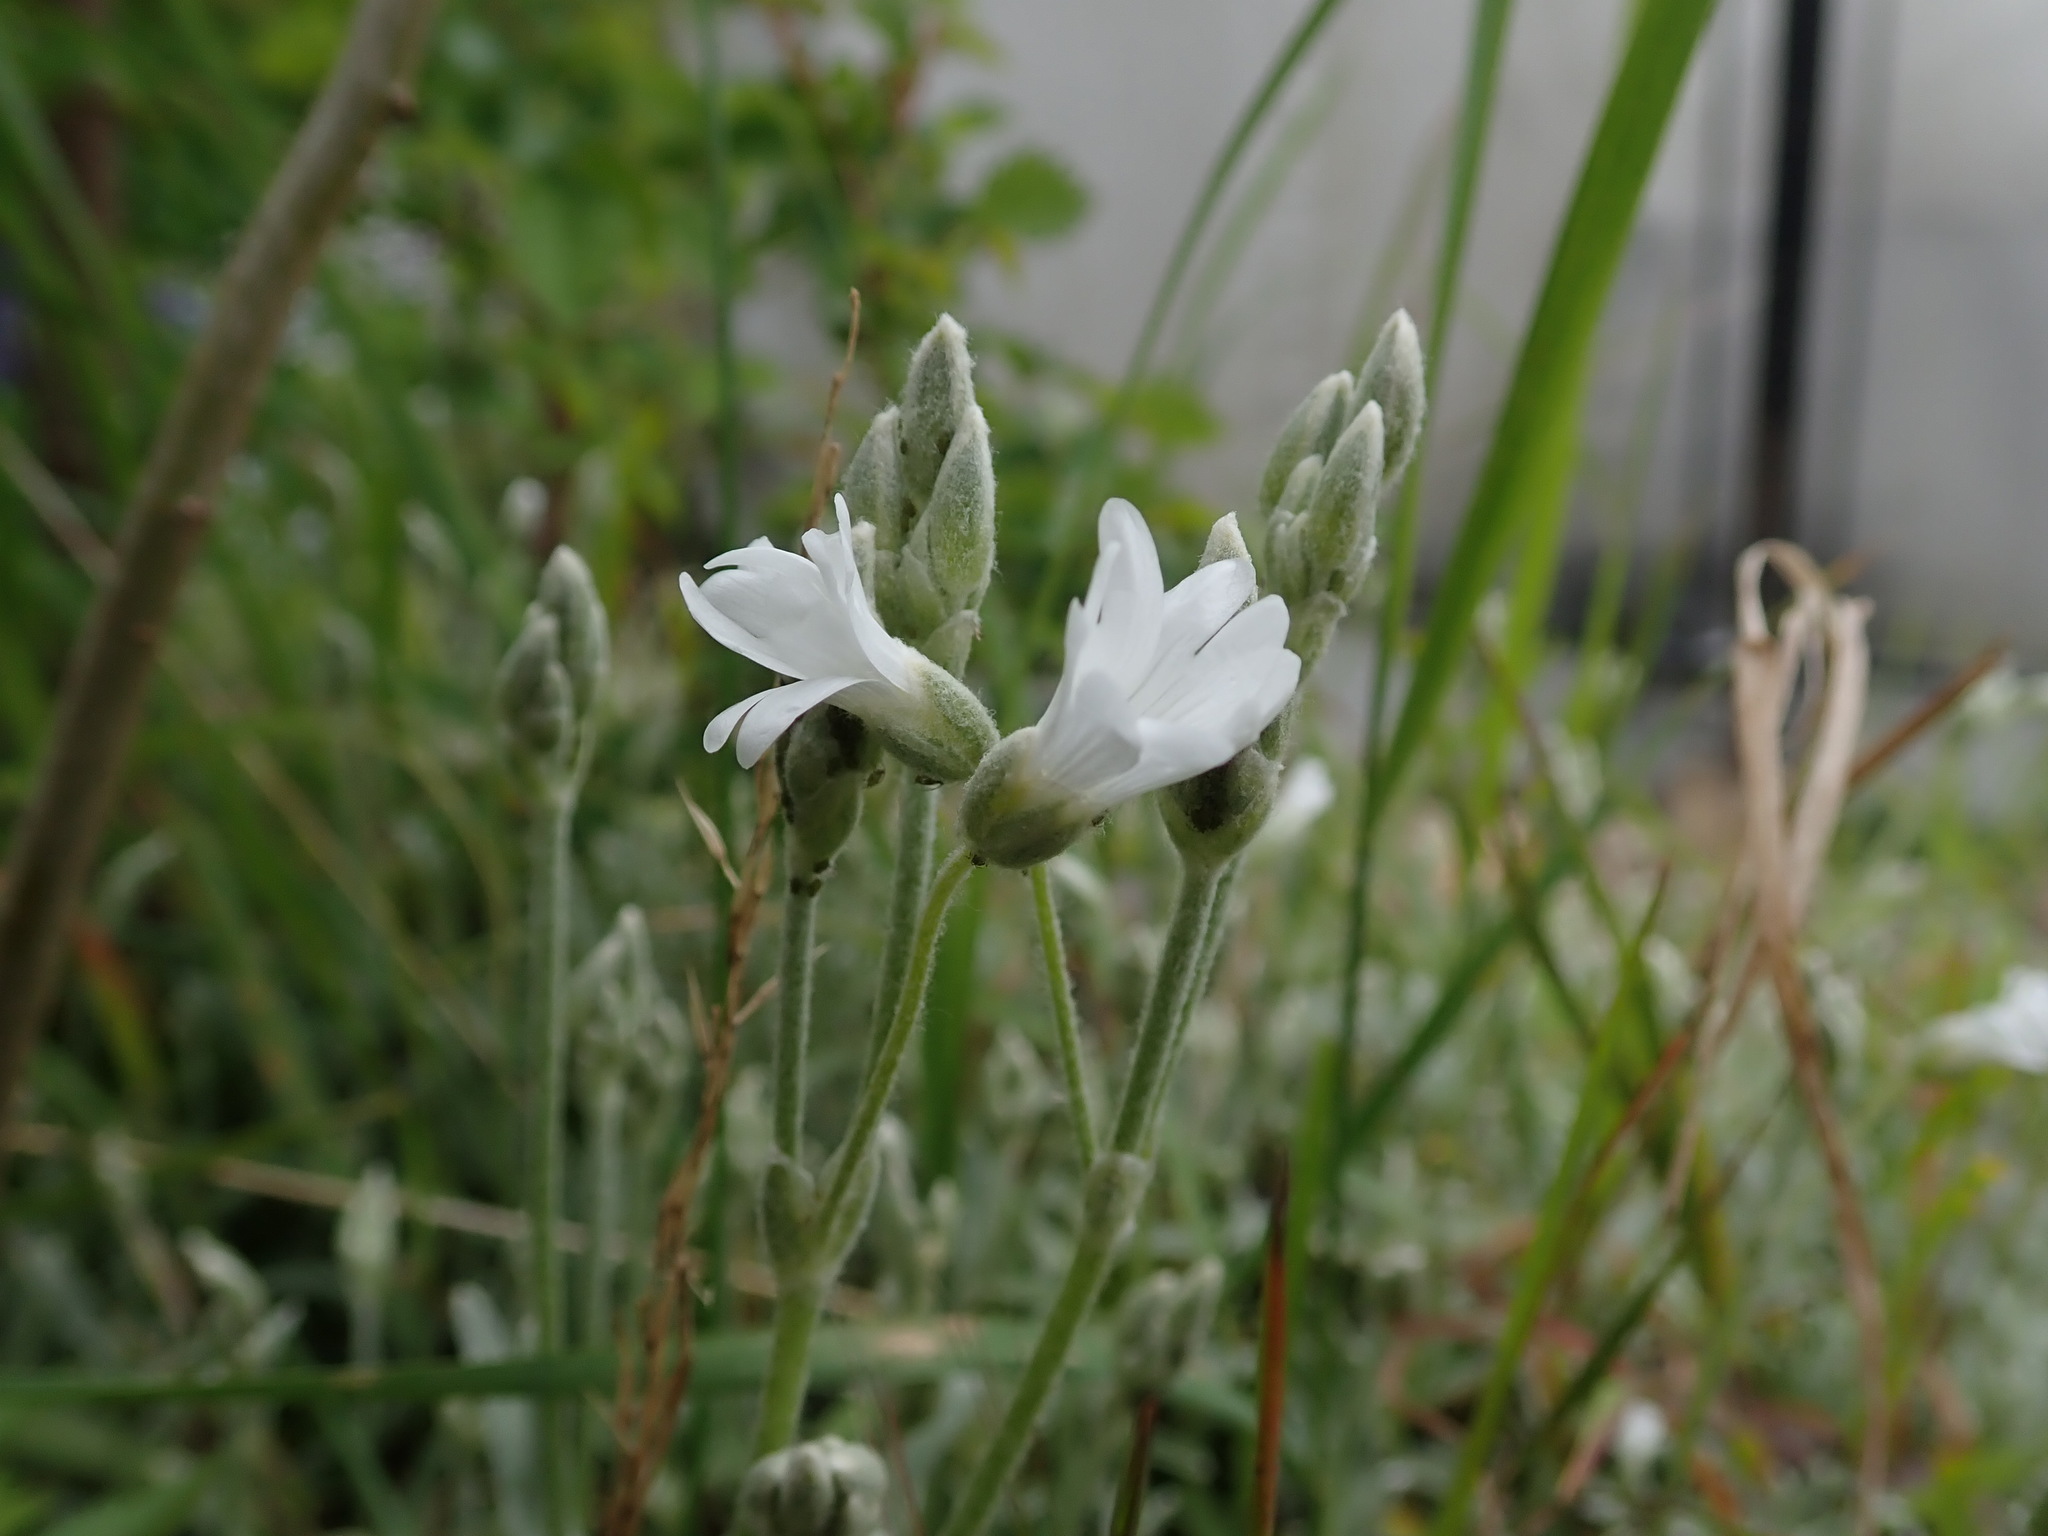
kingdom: Plantae
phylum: Tracheophyta
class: Magnoliopsida
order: Caryophyllales
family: Caryophyllaceae
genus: Cerastium
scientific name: Cerastium tomentosum
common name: Snow-in-summer
